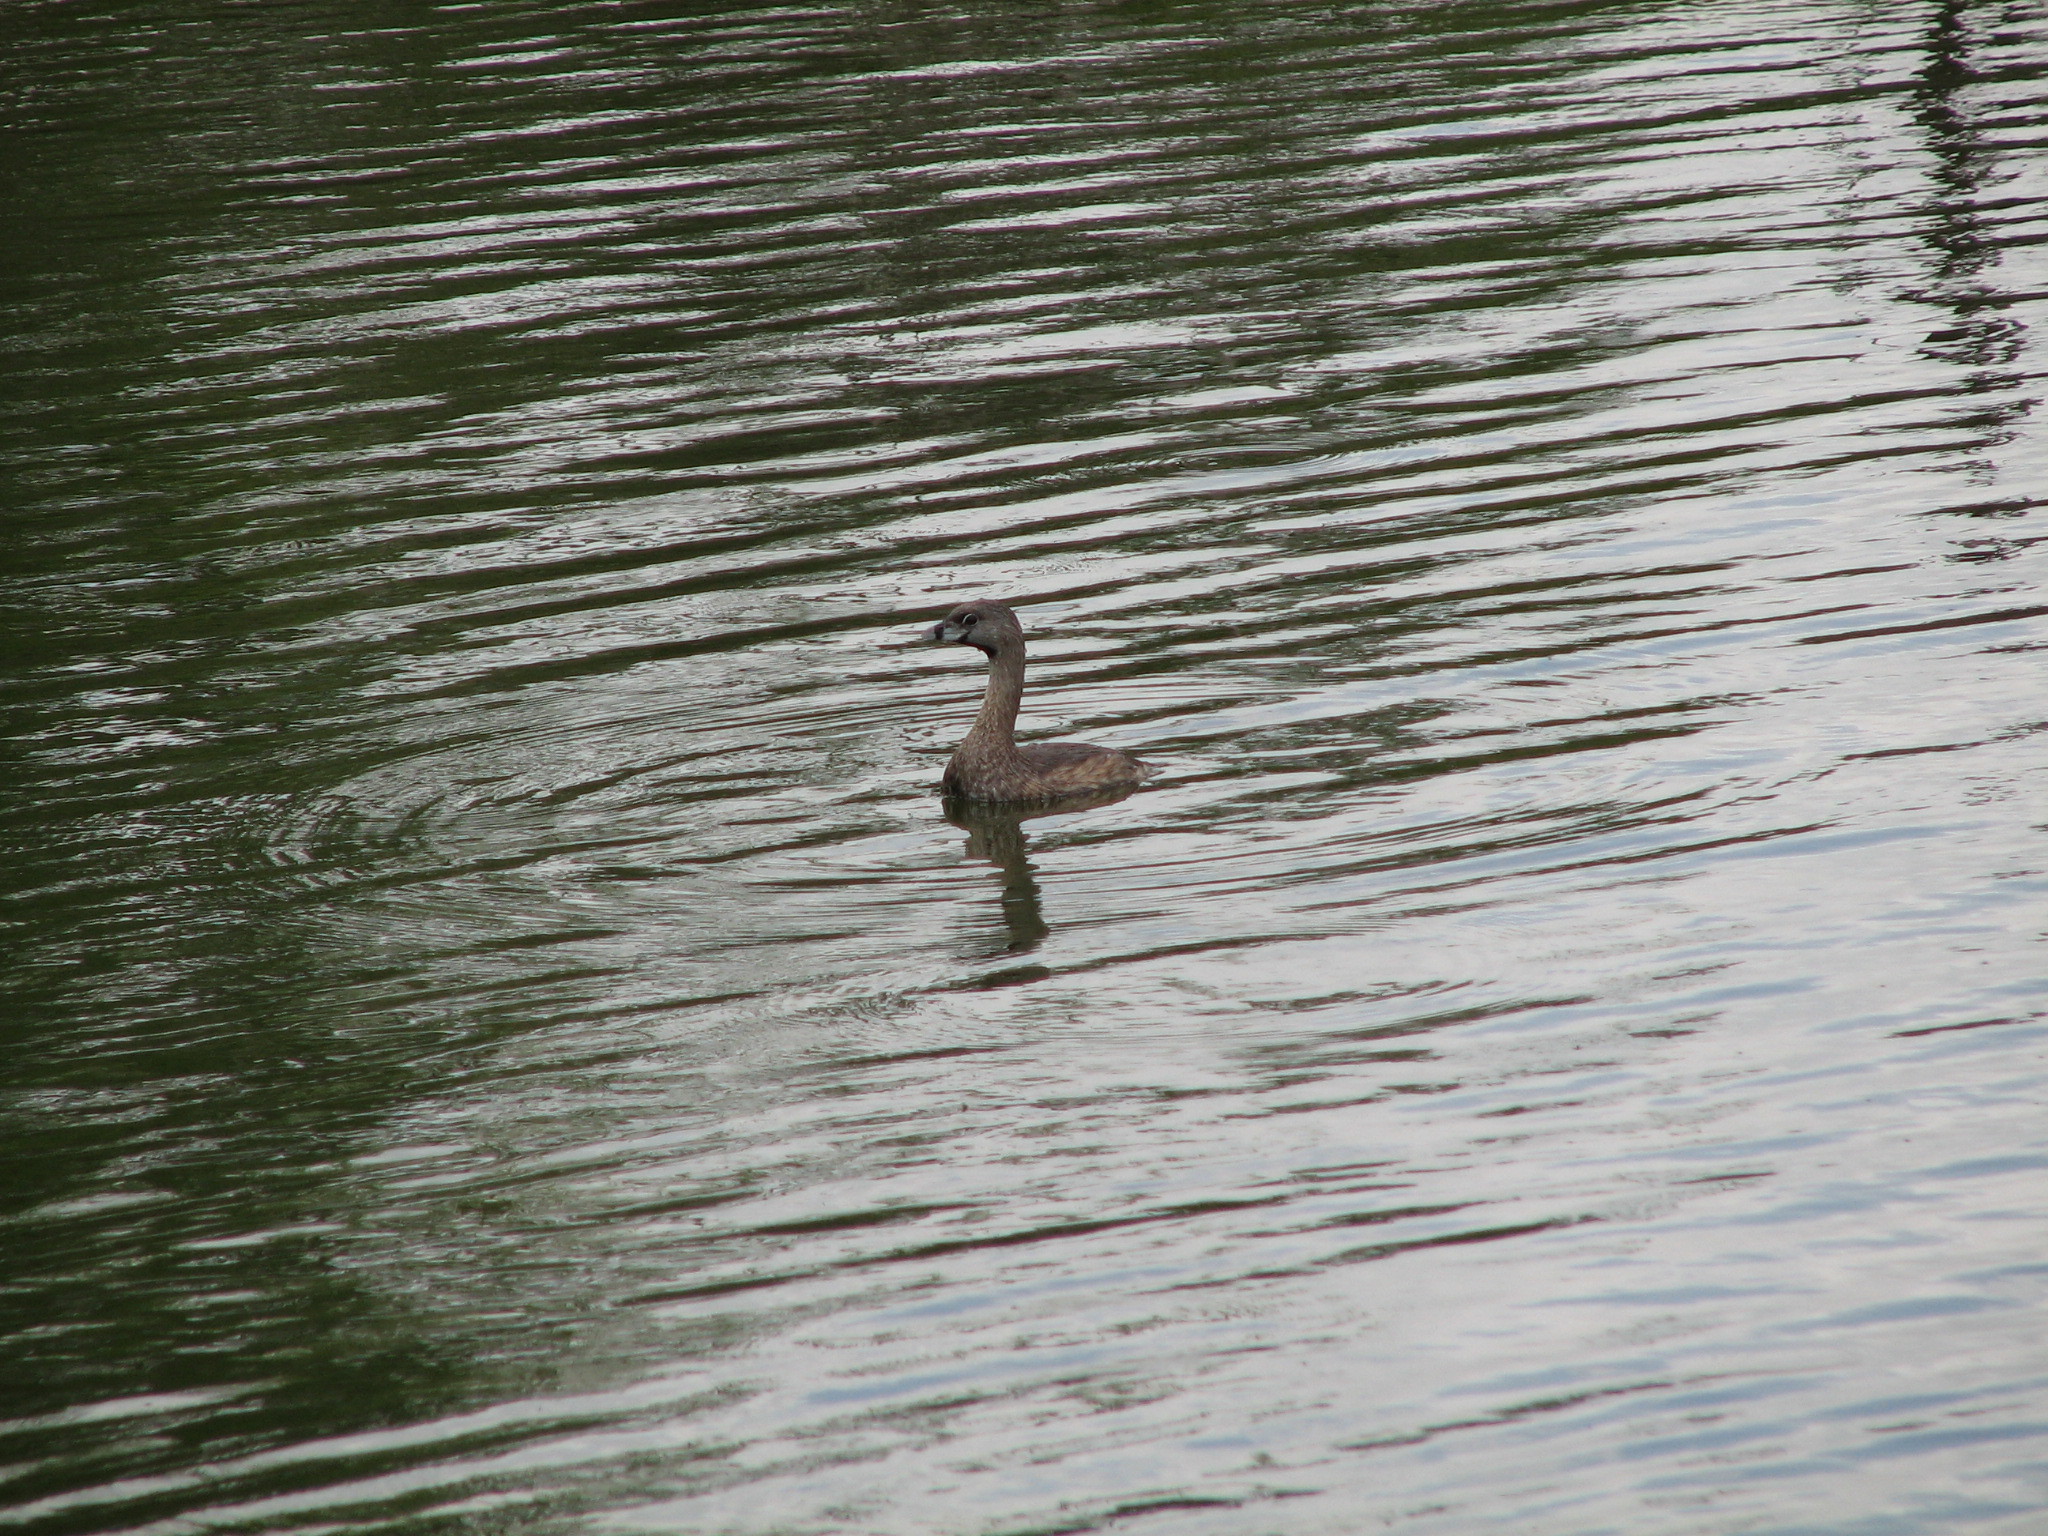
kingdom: Animalia
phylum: Chordata
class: Aves
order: Podicipediformes
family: Podicipedidae
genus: Podilymbus
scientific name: Podilymbus podiceps
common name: Pied-billed grebe
